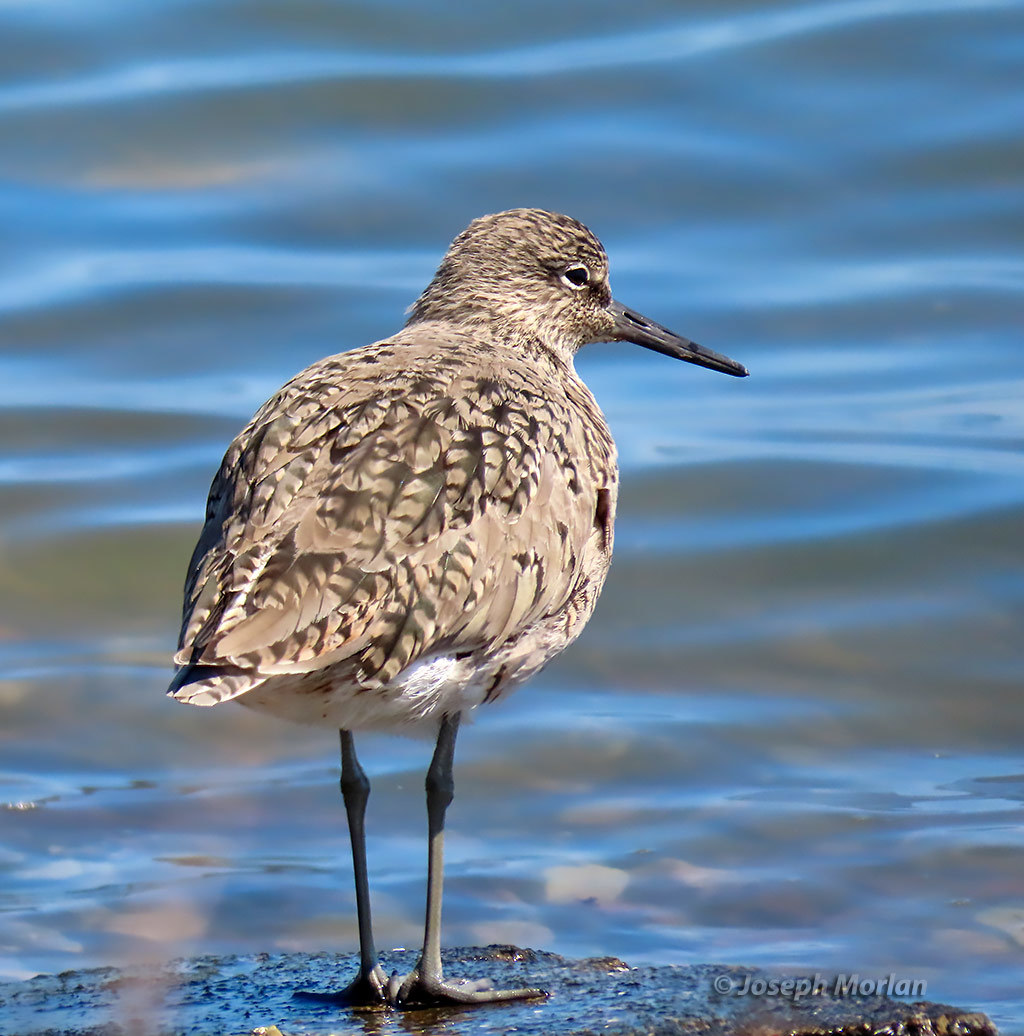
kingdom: Animalia
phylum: Chordata
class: Aves
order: Charadriiformes
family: Scolopacidae
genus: Tringa
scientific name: Tringa semipalmata
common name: Willet
